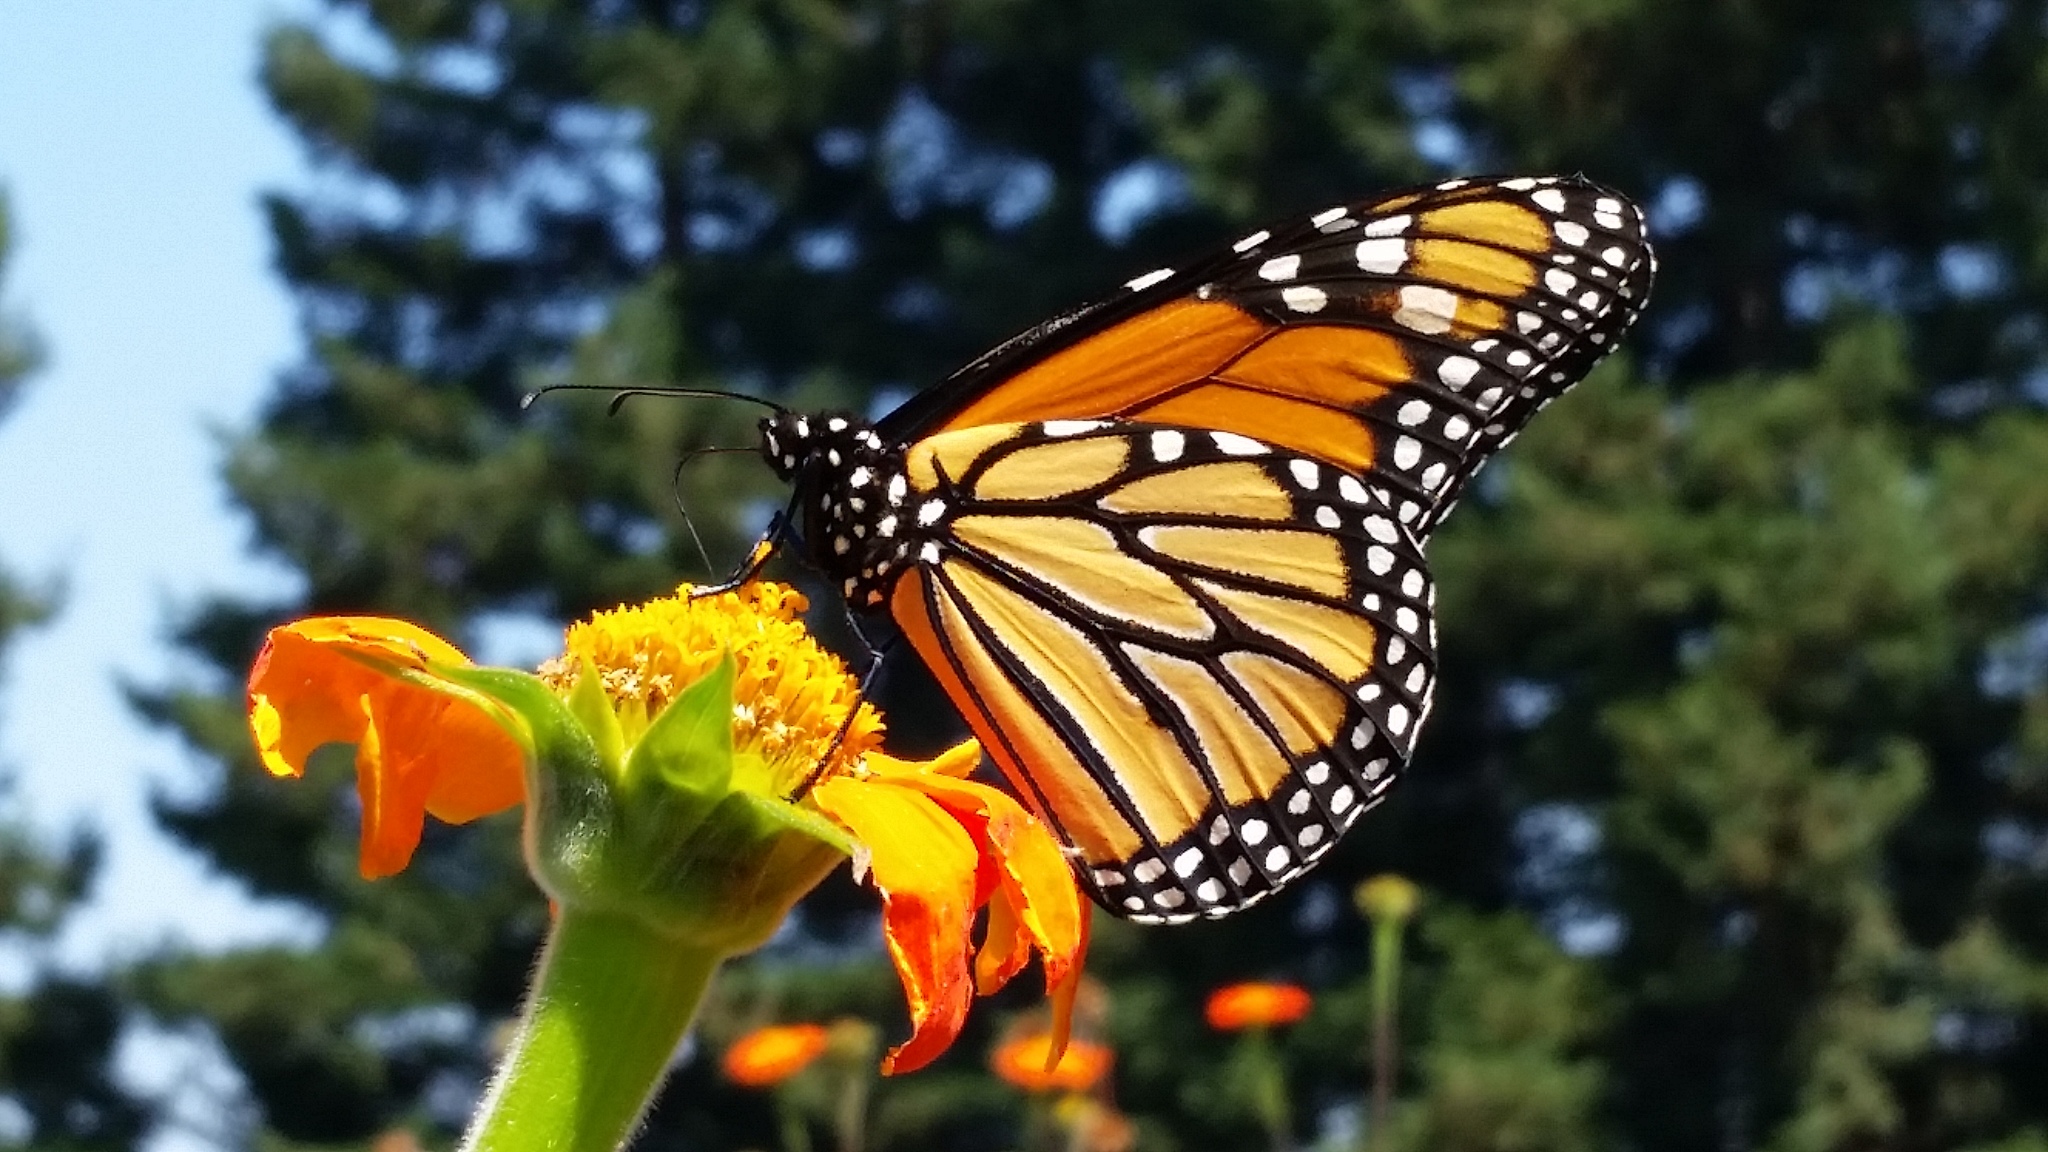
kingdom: Animalia
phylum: Arthropoda
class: Insecta
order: Lepidoptera
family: Nymphalidae
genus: Danaus
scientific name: Danaus plexippus
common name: Monarch
